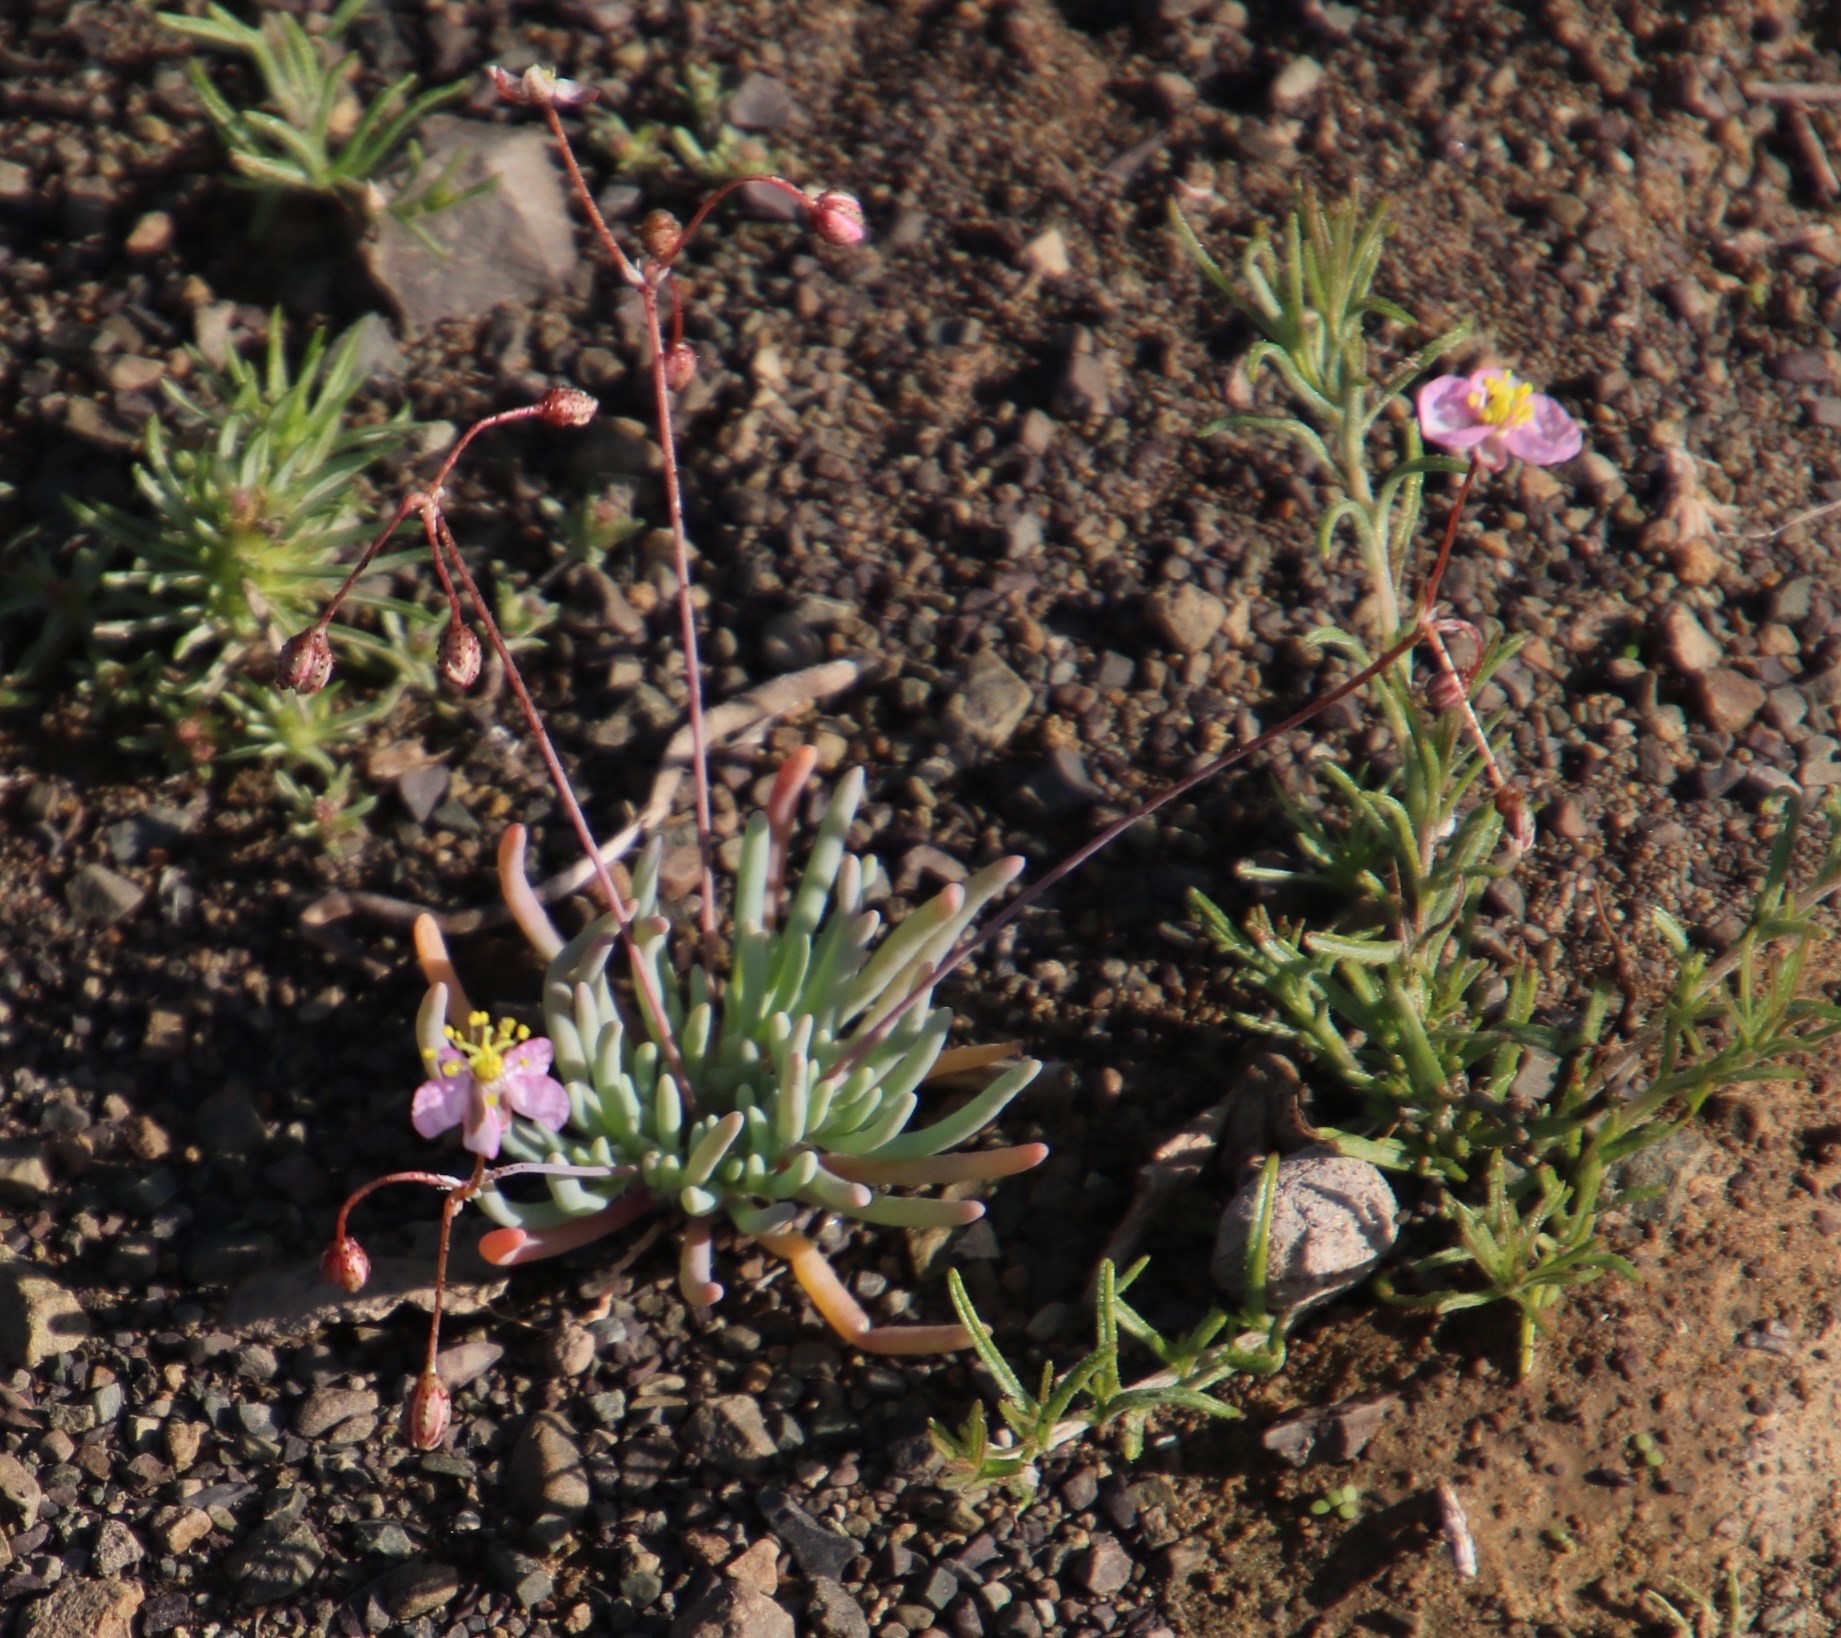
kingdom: Plantae
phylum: Tracheophyta
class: Magnoliopsida
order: Caryophyllales
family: Kewaceae
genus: Kewa
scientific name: Kewa salsoloides
